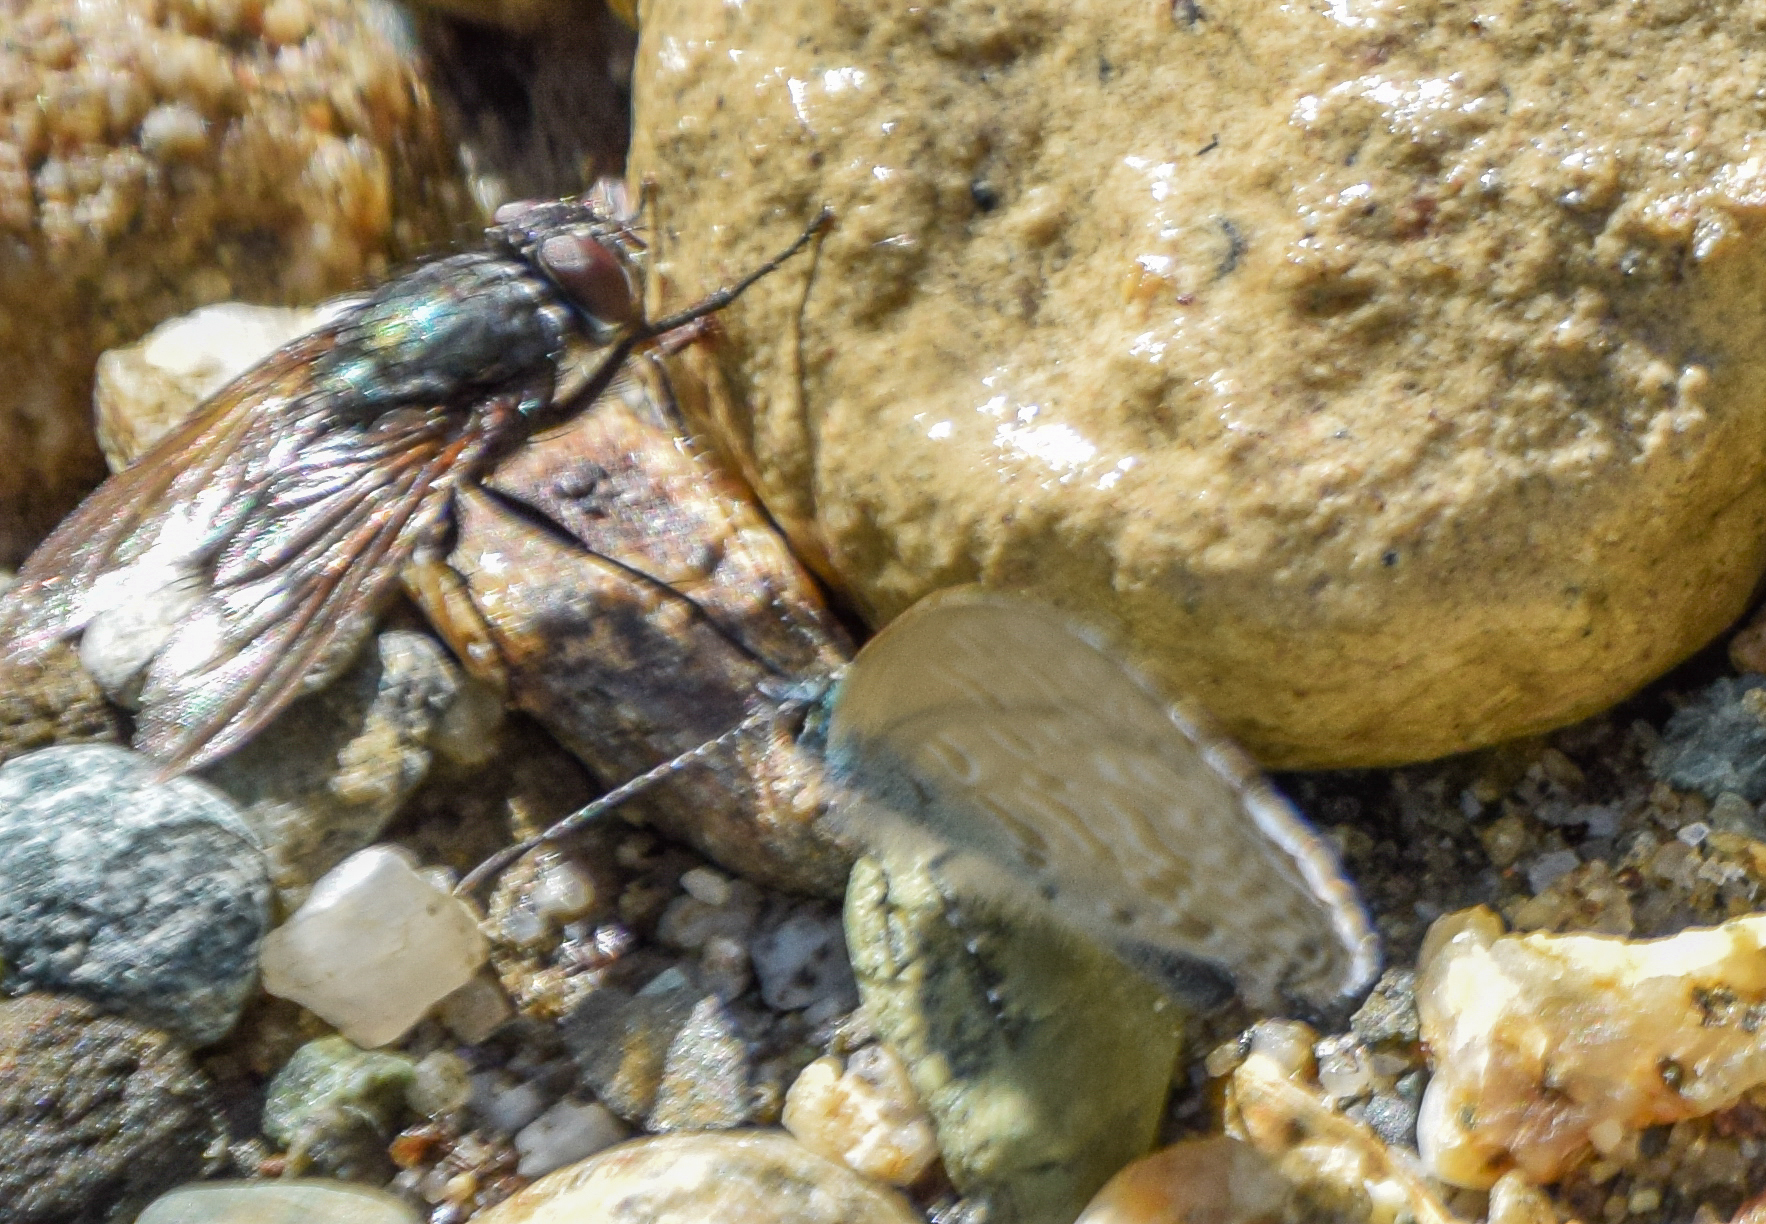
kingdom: Animalia
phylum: Arthropoda
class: Insecta
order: Lepidoptera
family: Lycaenidae
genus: Monodontides
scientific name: Monodontides
